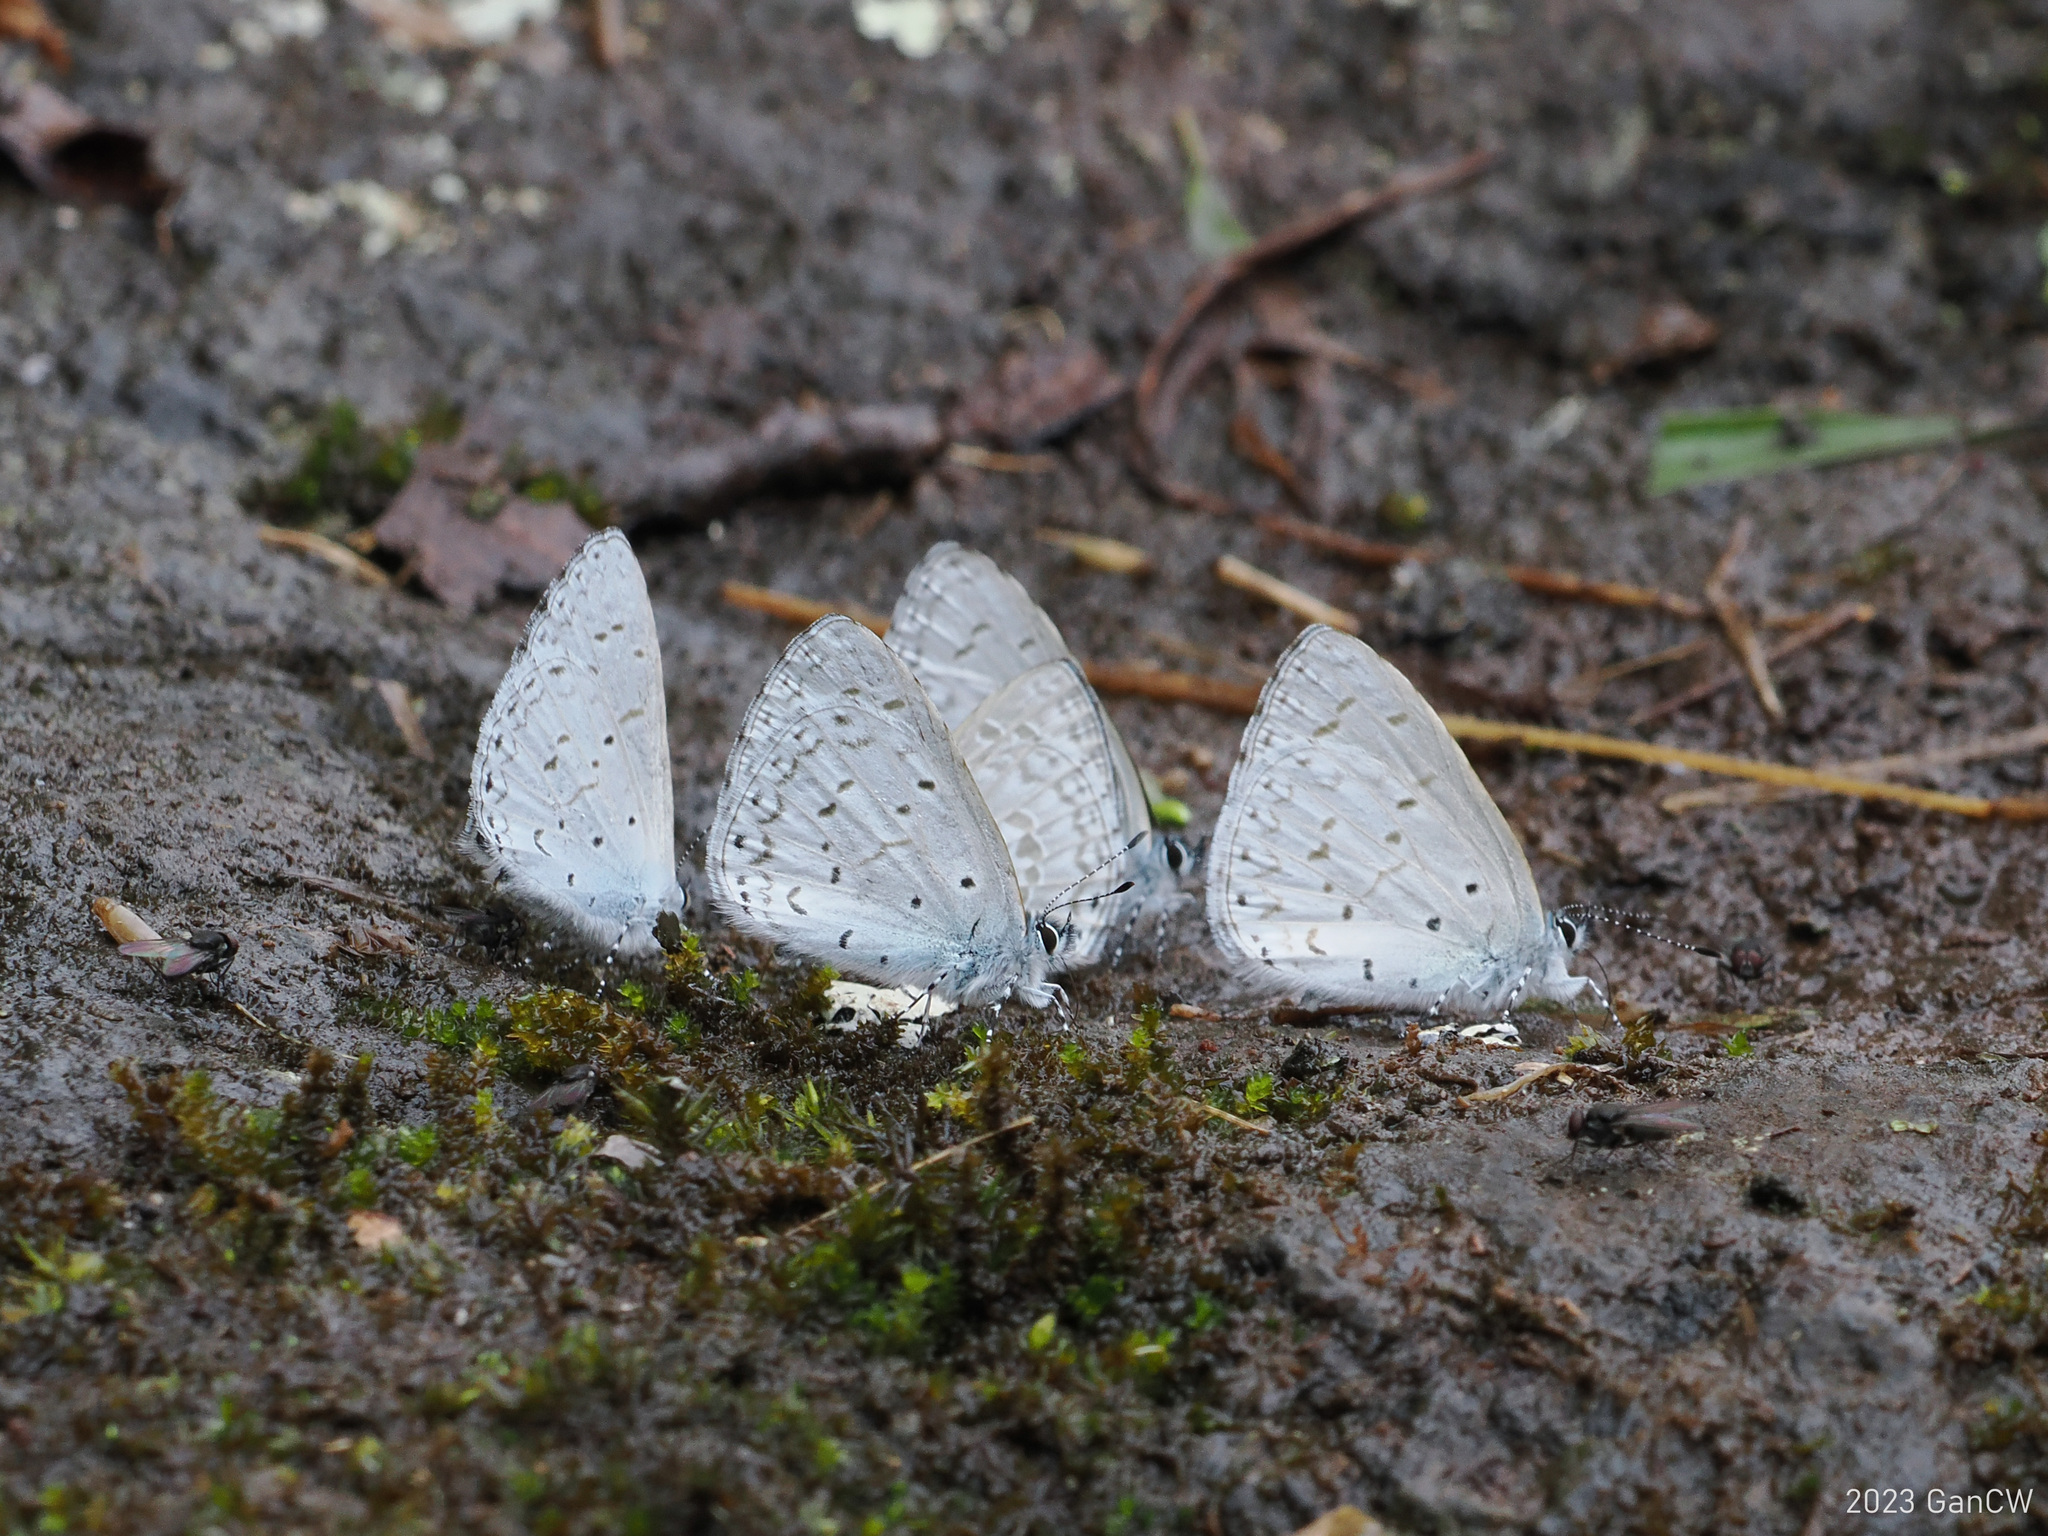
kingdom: Animalia
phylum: Arthropoda
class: Insecta
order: Lepidoptera
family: Lycaenidae
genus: Udara
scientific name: Udara dilectus
